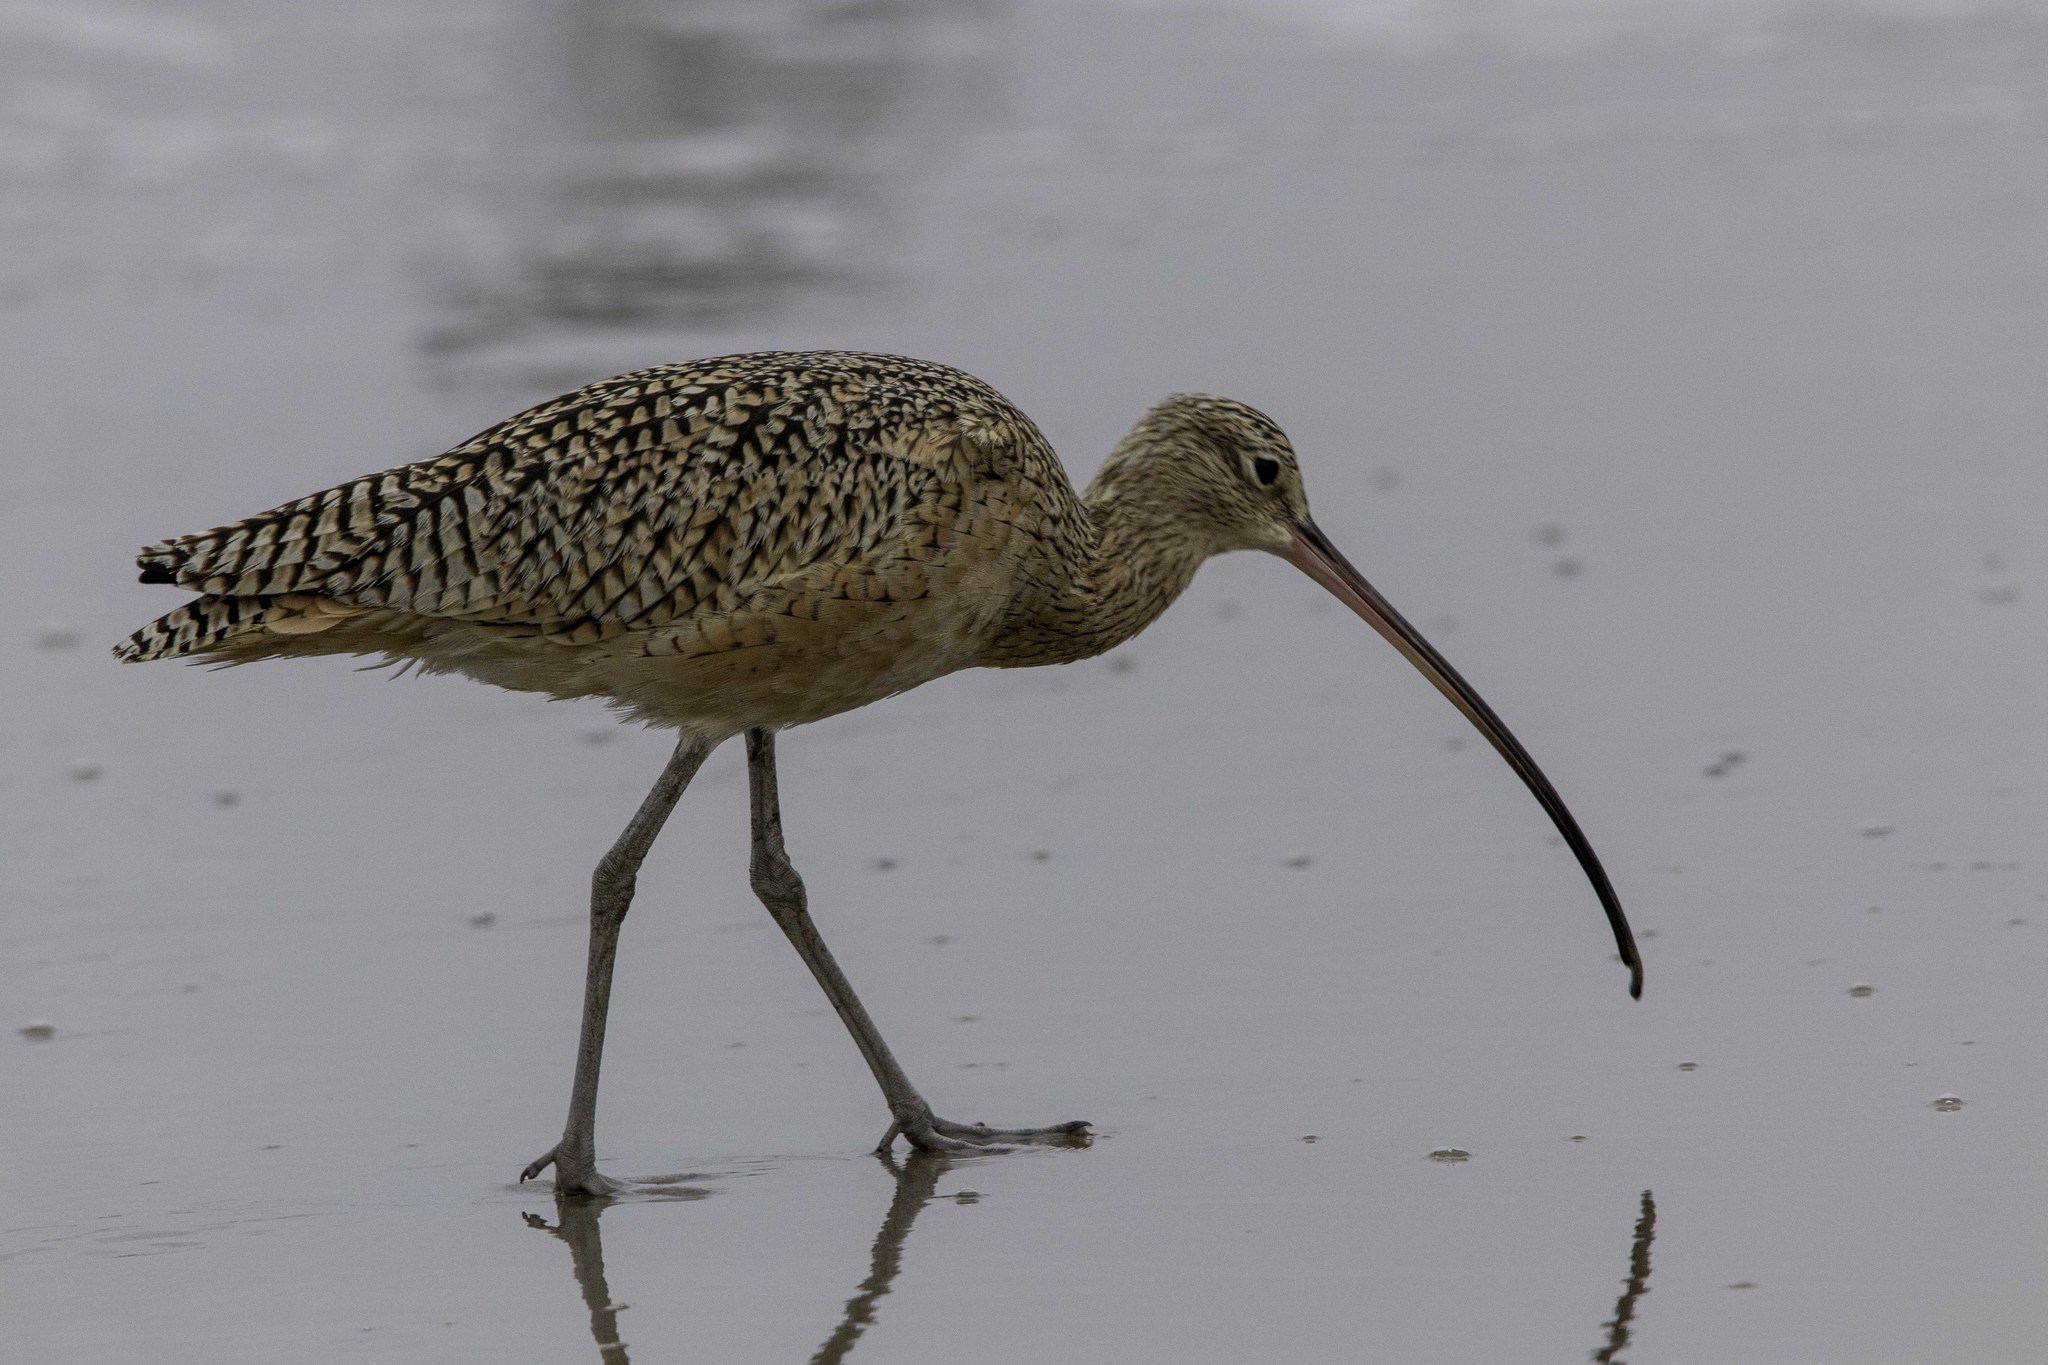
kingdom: Animalia
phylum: Chordata
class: Aves
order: Charadriiformes
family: Scolopacidae
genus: Numenius
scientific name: Numenius americanus
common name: Long-billed curlew
